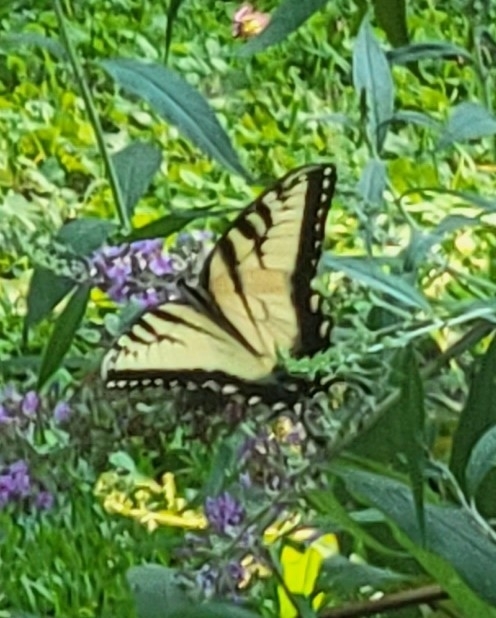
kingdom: Animalia
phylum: Arthropoda
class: Insecta
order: Lepidoptera
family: Papilionidae
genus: Papilio
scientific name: Papilio glaucus
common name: Tiger swallowtail
